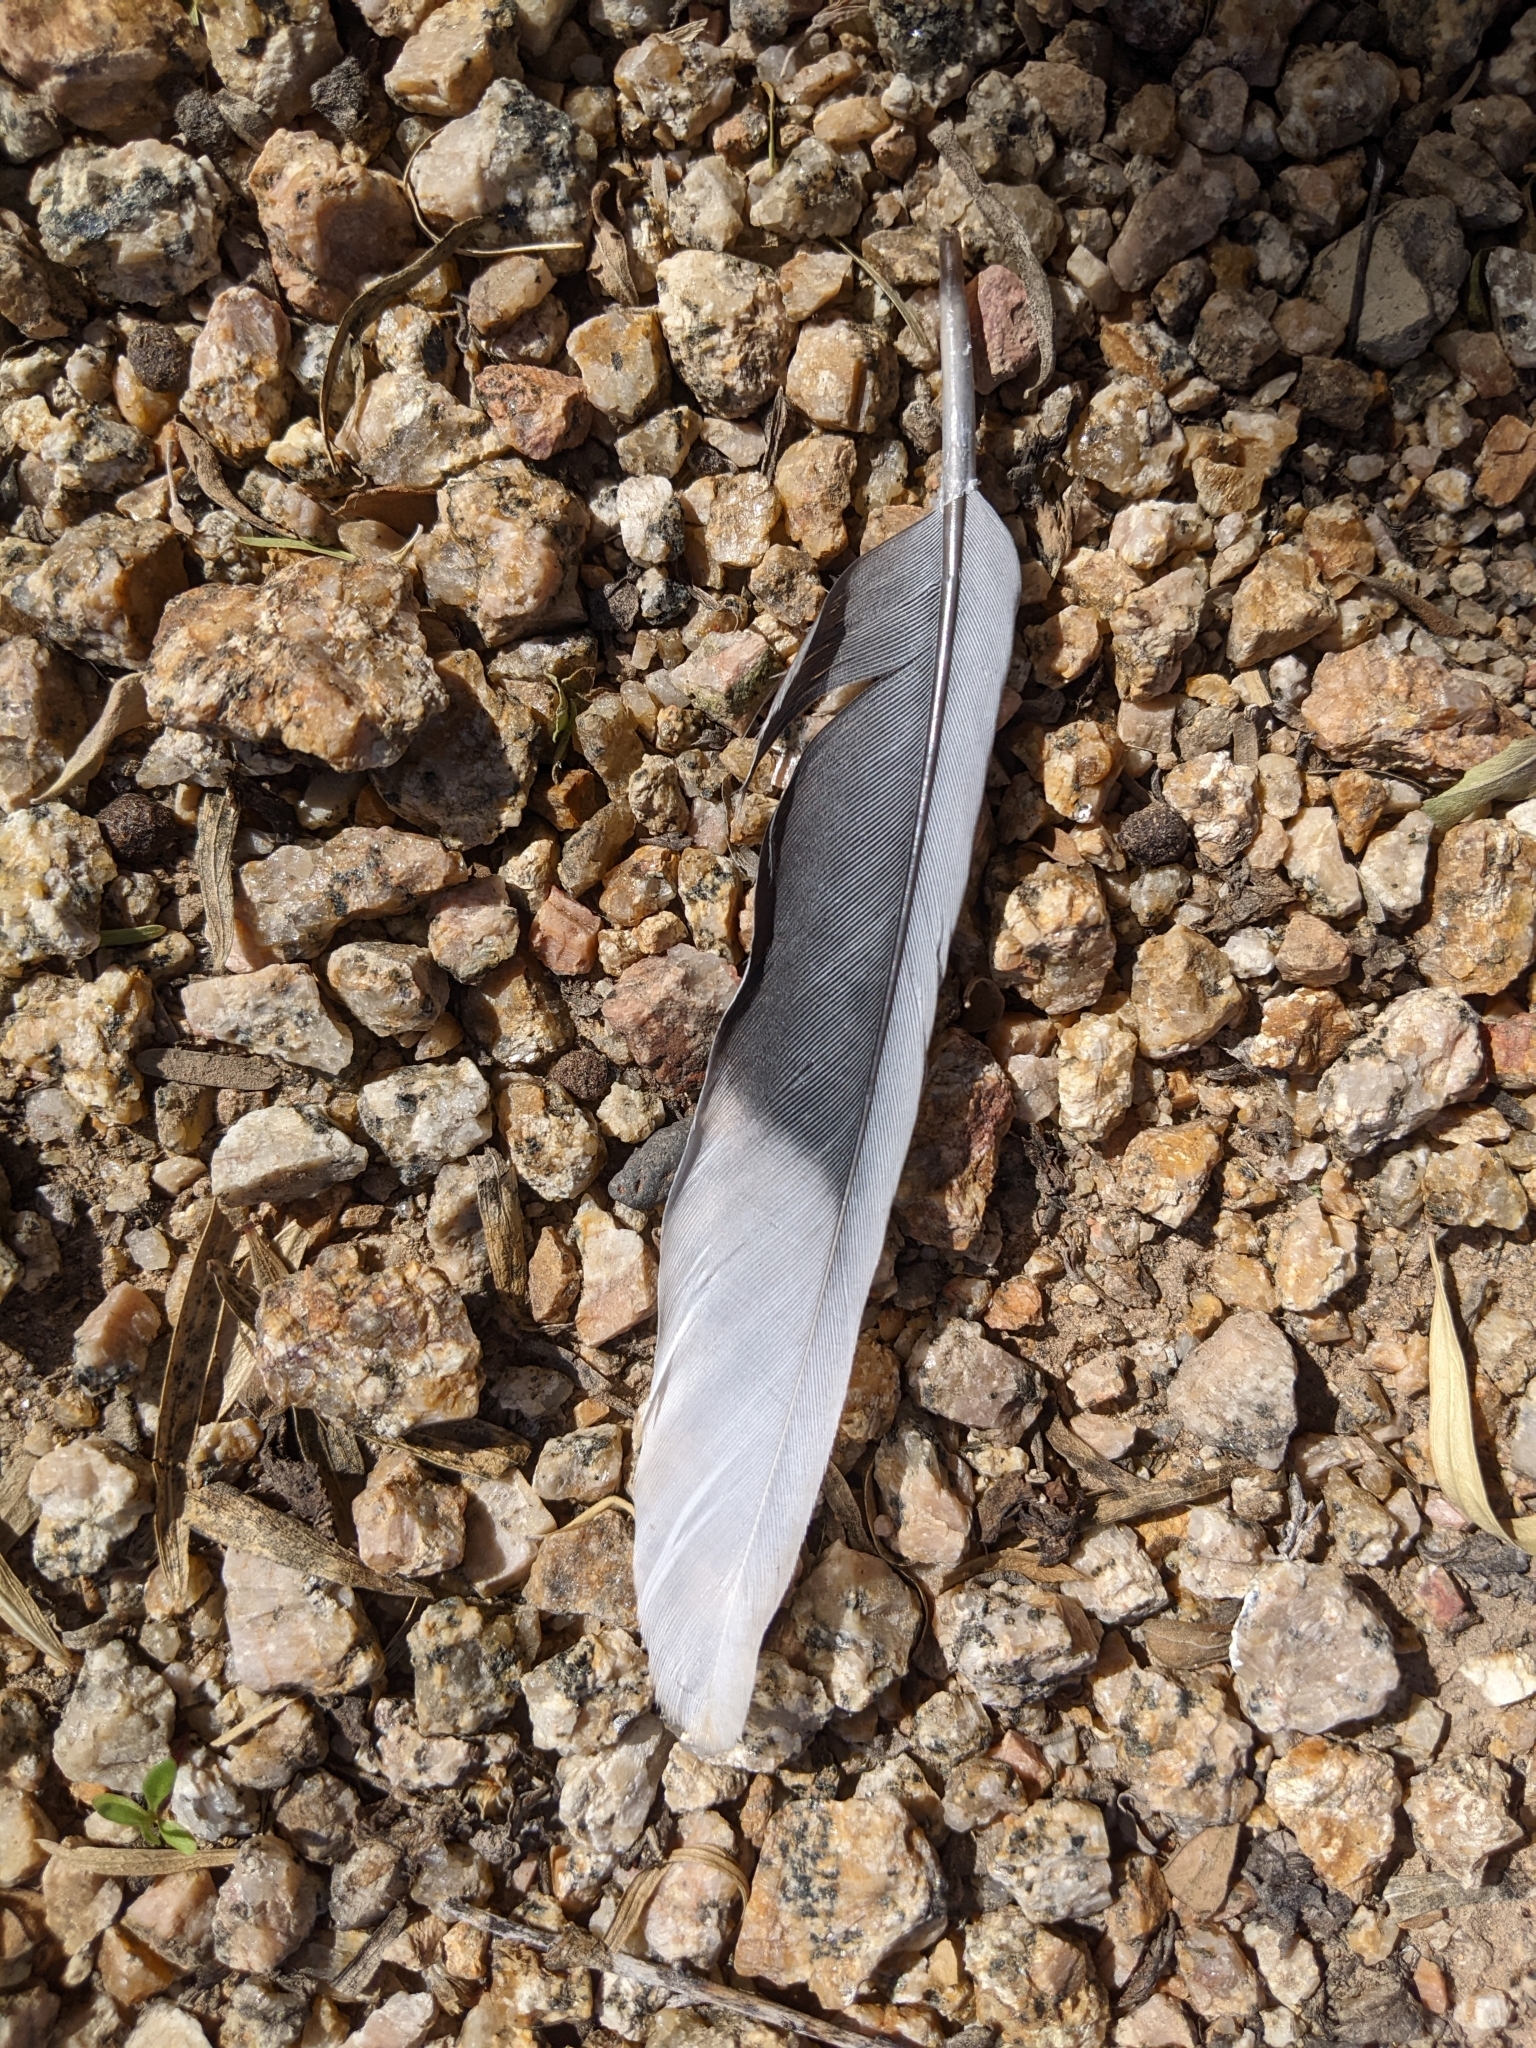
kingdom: Animalia
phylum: Chordata
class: Aves
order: Columbiformes
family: Columbidae
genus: Streptopelia
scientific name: Streptopelia decaocto
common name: Eurasian collared dove
